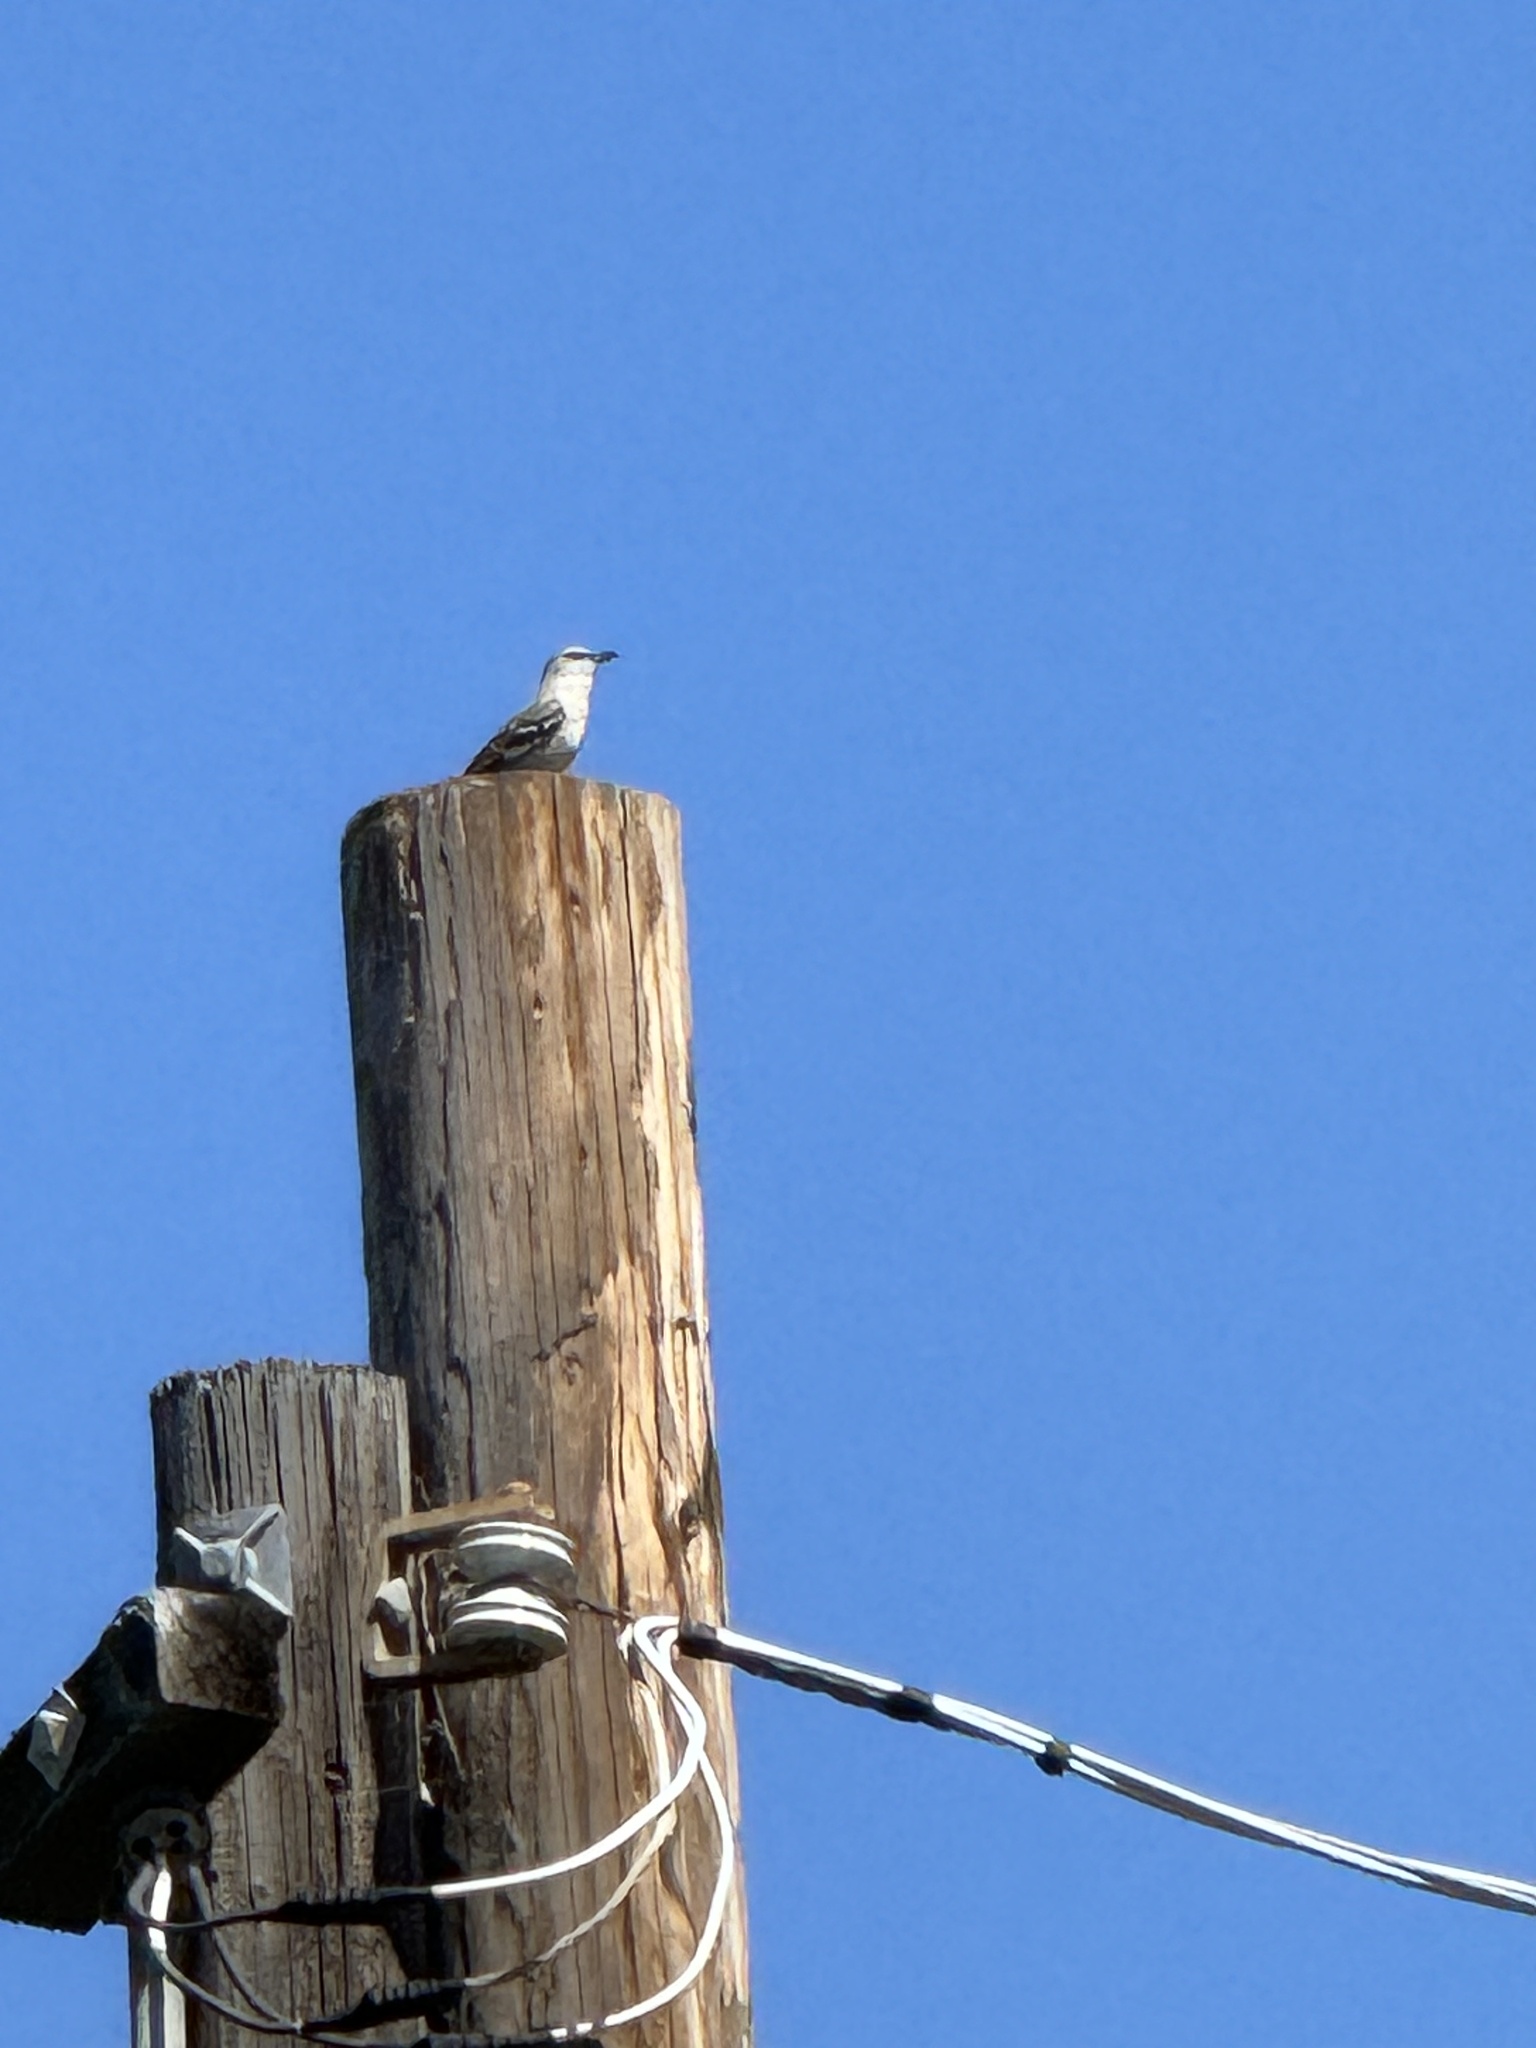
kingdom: Animalia
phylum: Chordata
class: Aves
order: Passeriformes
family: Mimidae
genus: Mimus
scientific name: Mimus polyglottos
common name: Northern mockingbird
